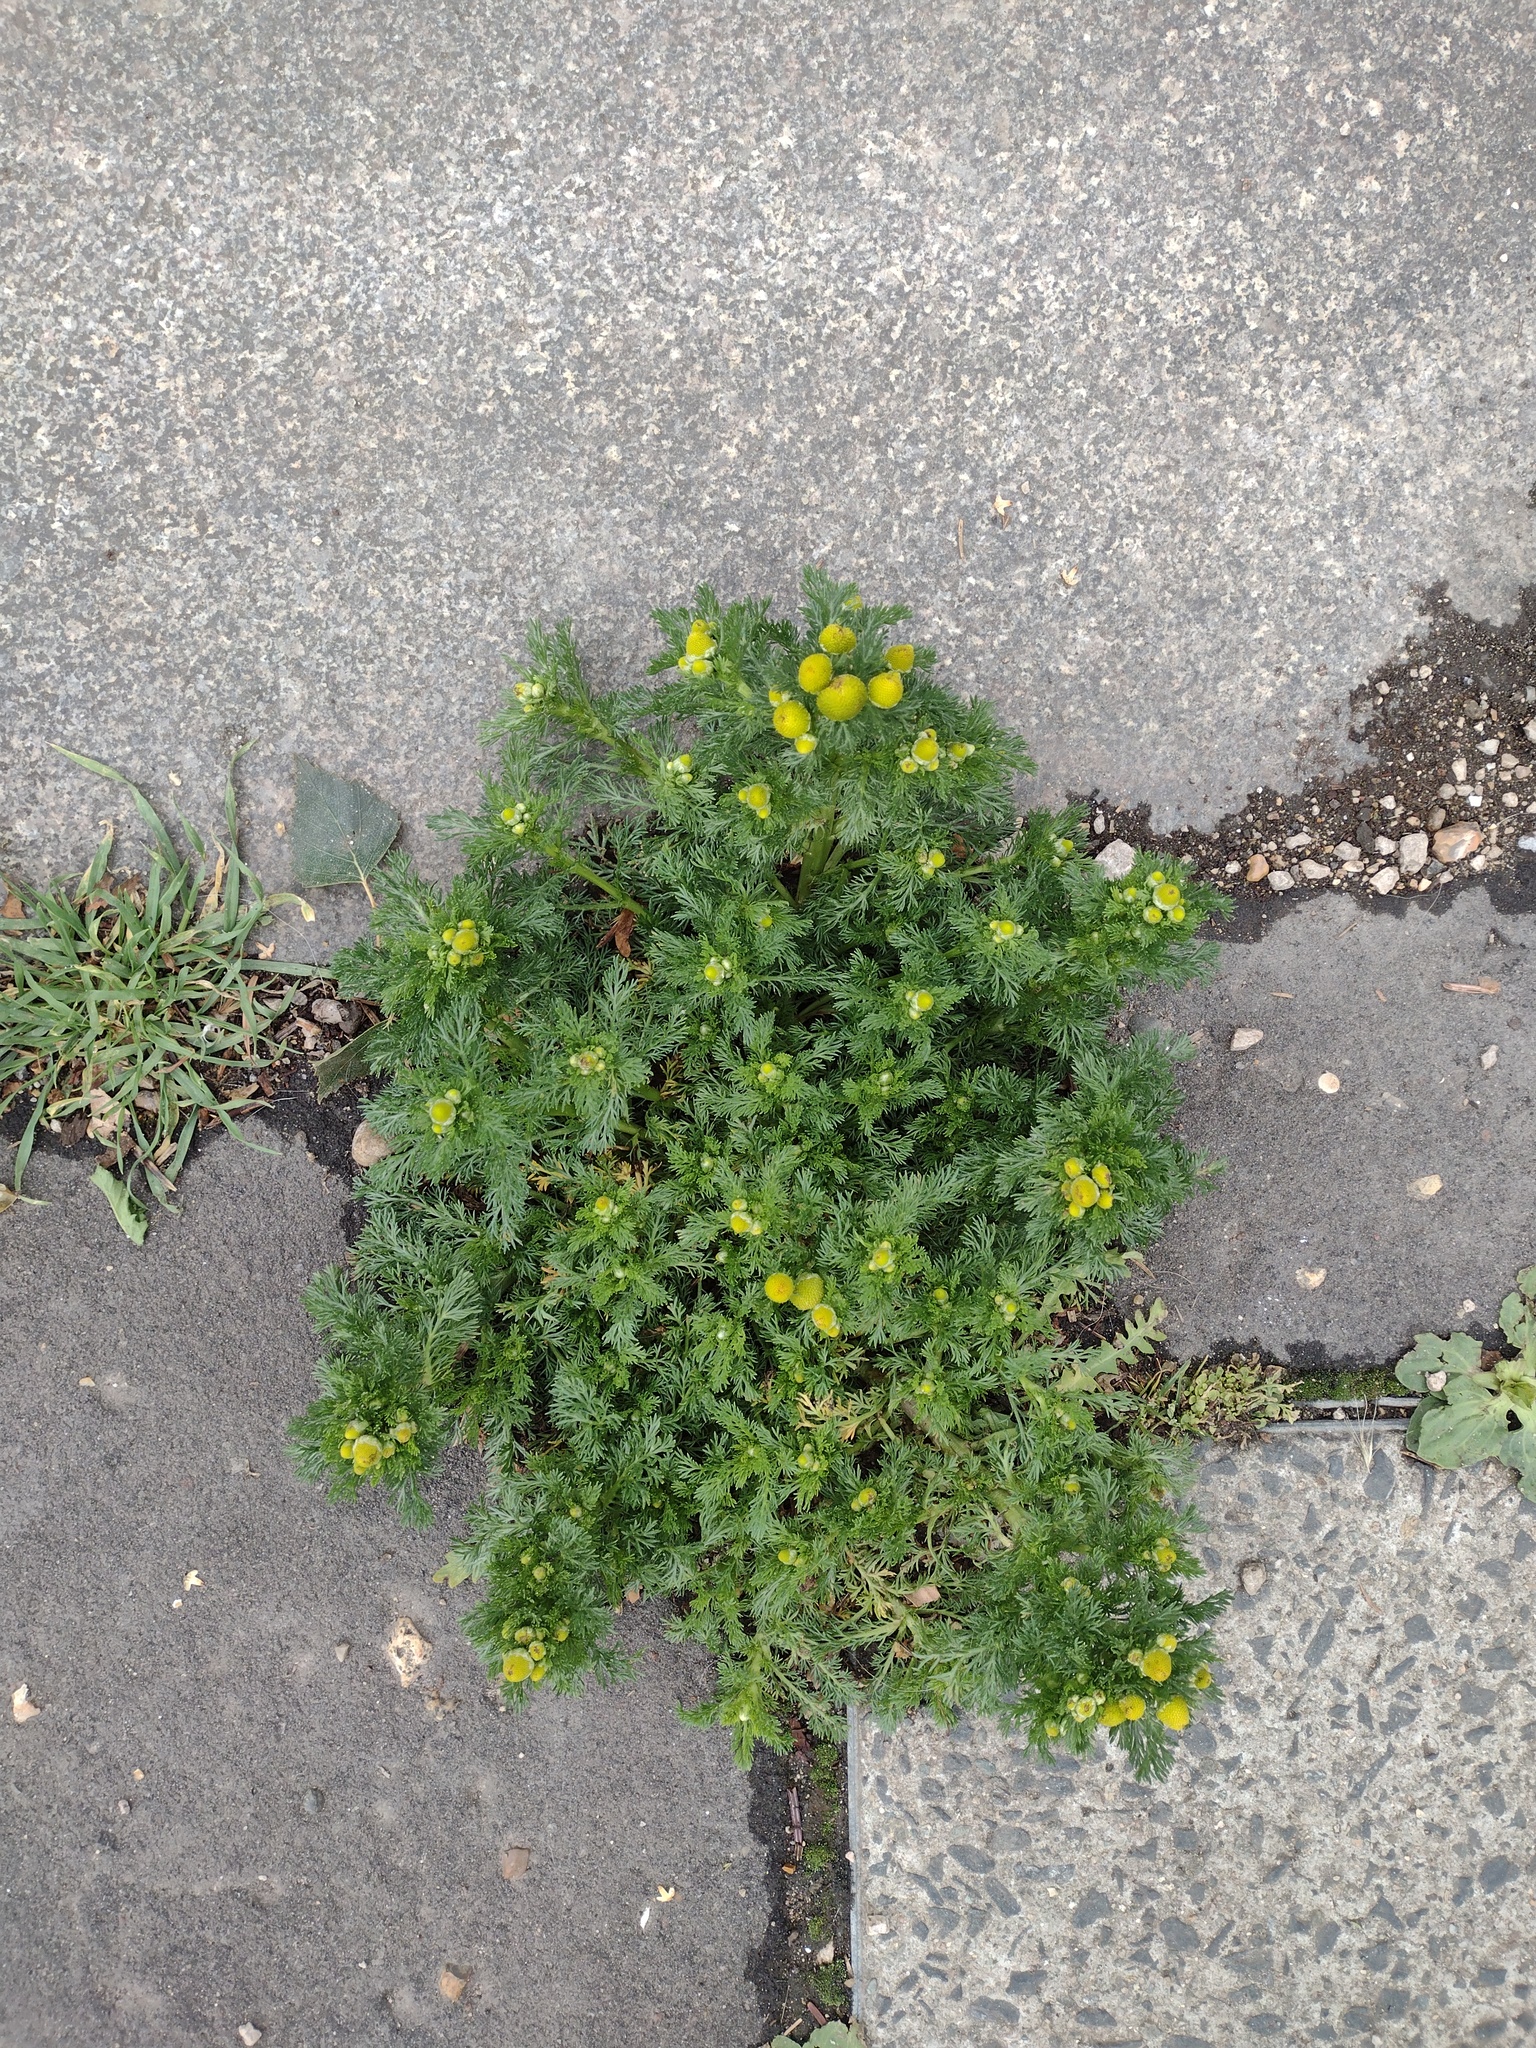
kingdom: Plantae
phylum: Tracheophyta
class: Magnoliopsida
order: Asterales
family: Asteraceae
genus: Matricaria
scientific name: Matricaria discoidea
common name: Disc mayweed
